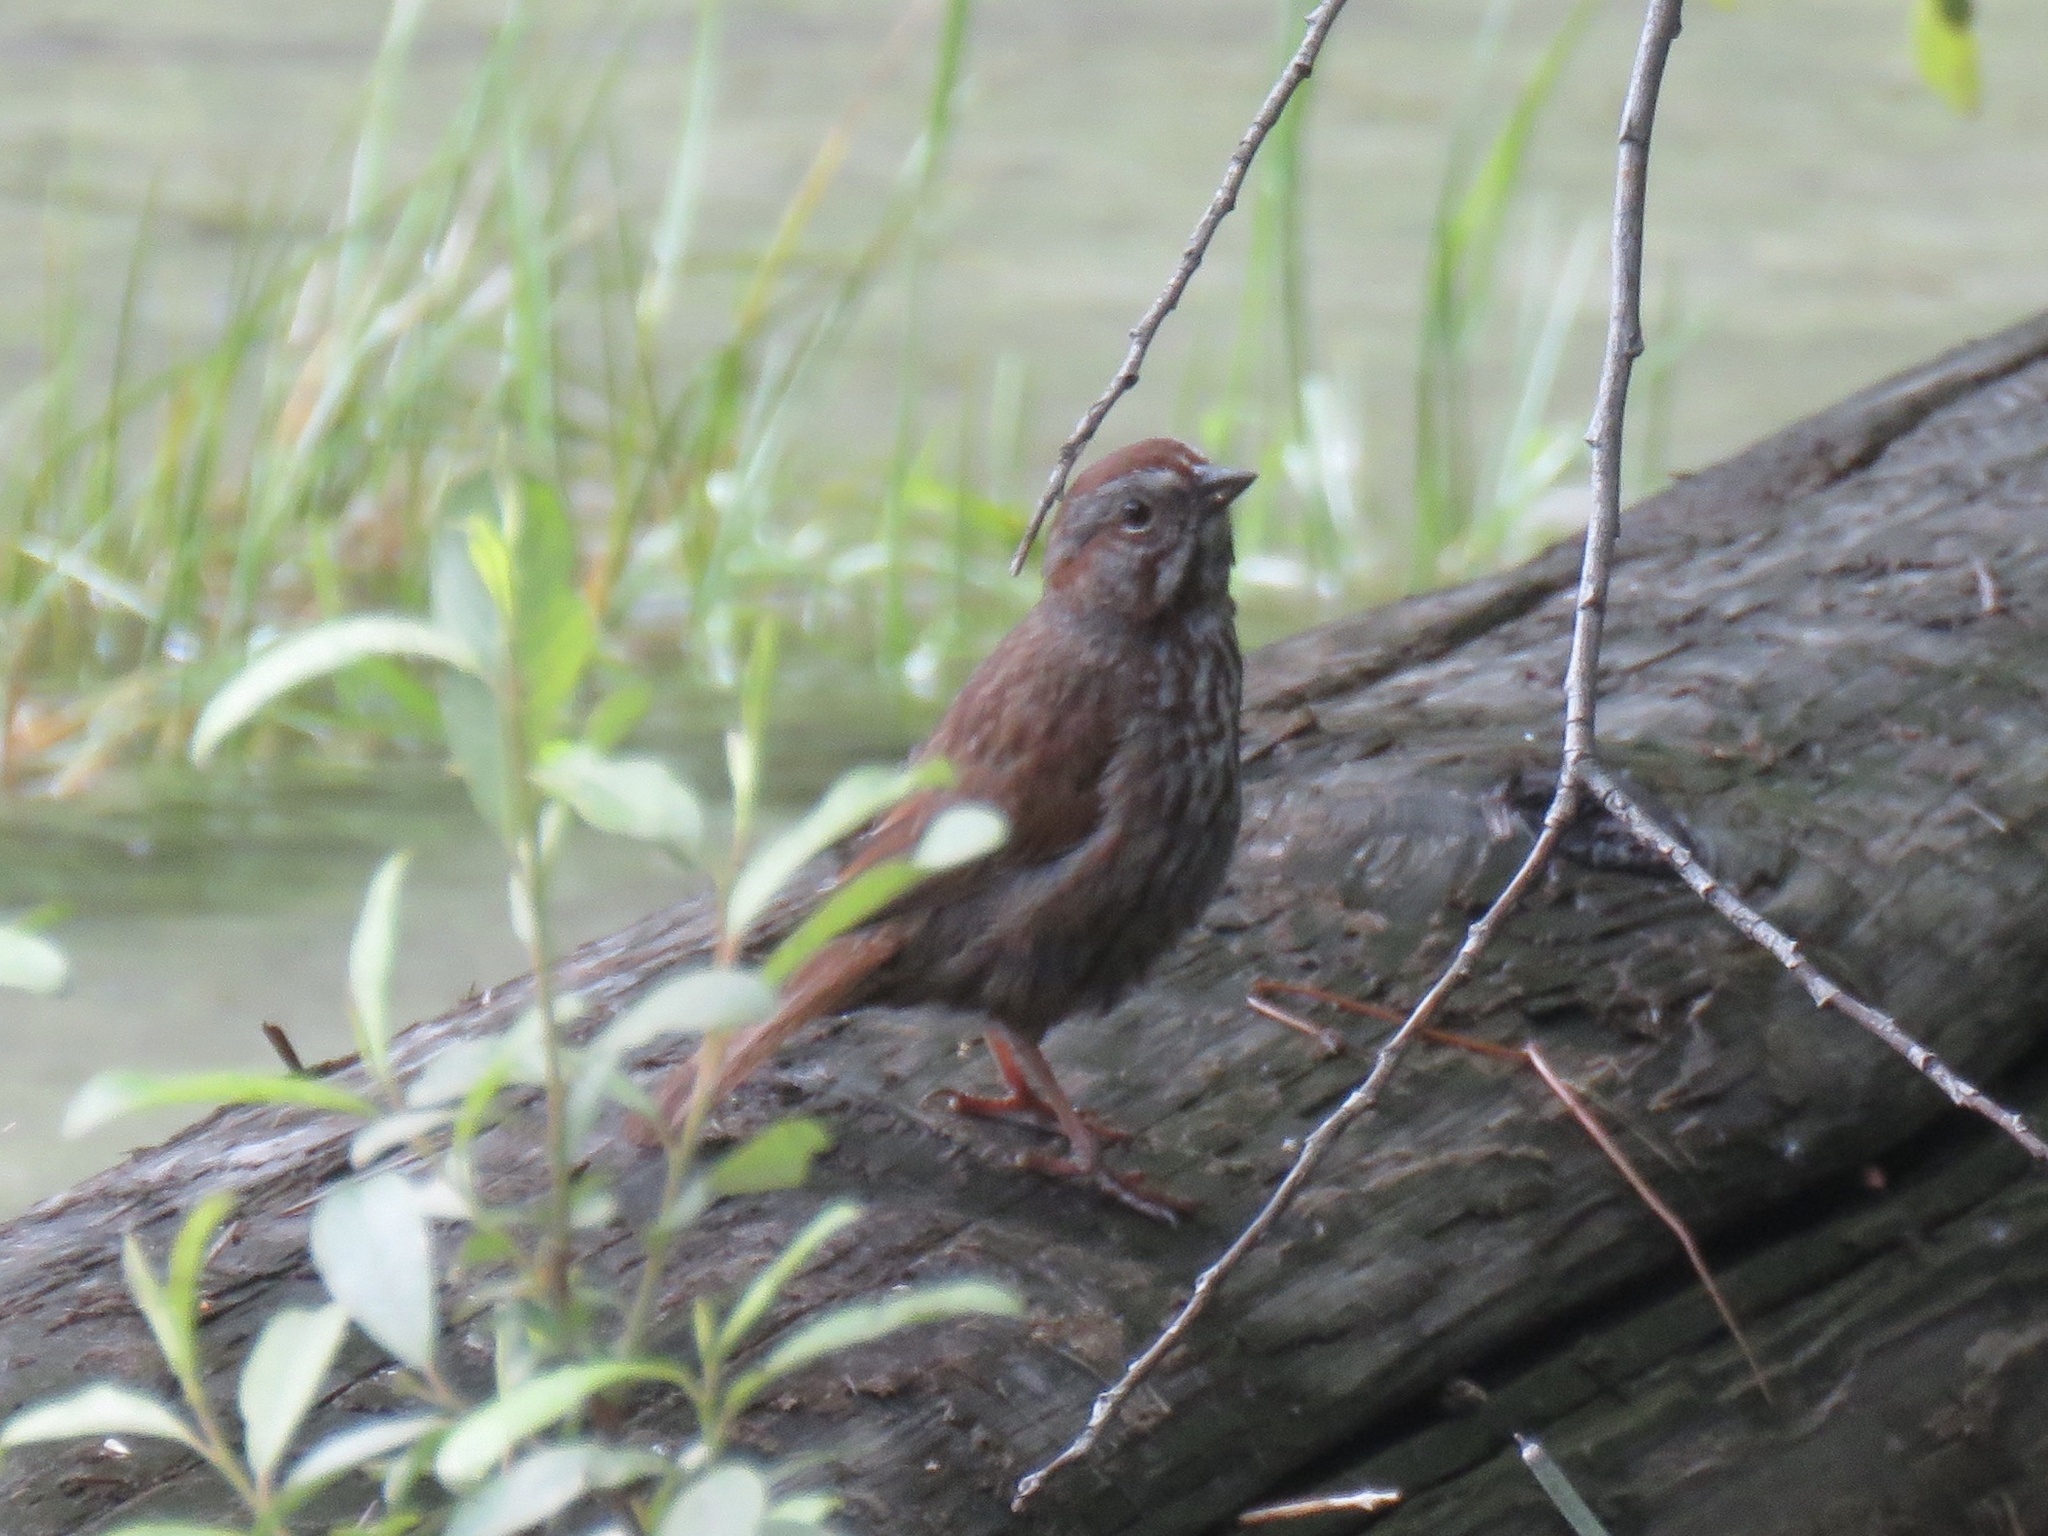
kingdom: Animalia
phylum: Chordata
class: Aves
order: Passeriformes
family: Passerellidae
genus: Melospiza
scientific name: Melospiza melodia
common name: Song sparrow
